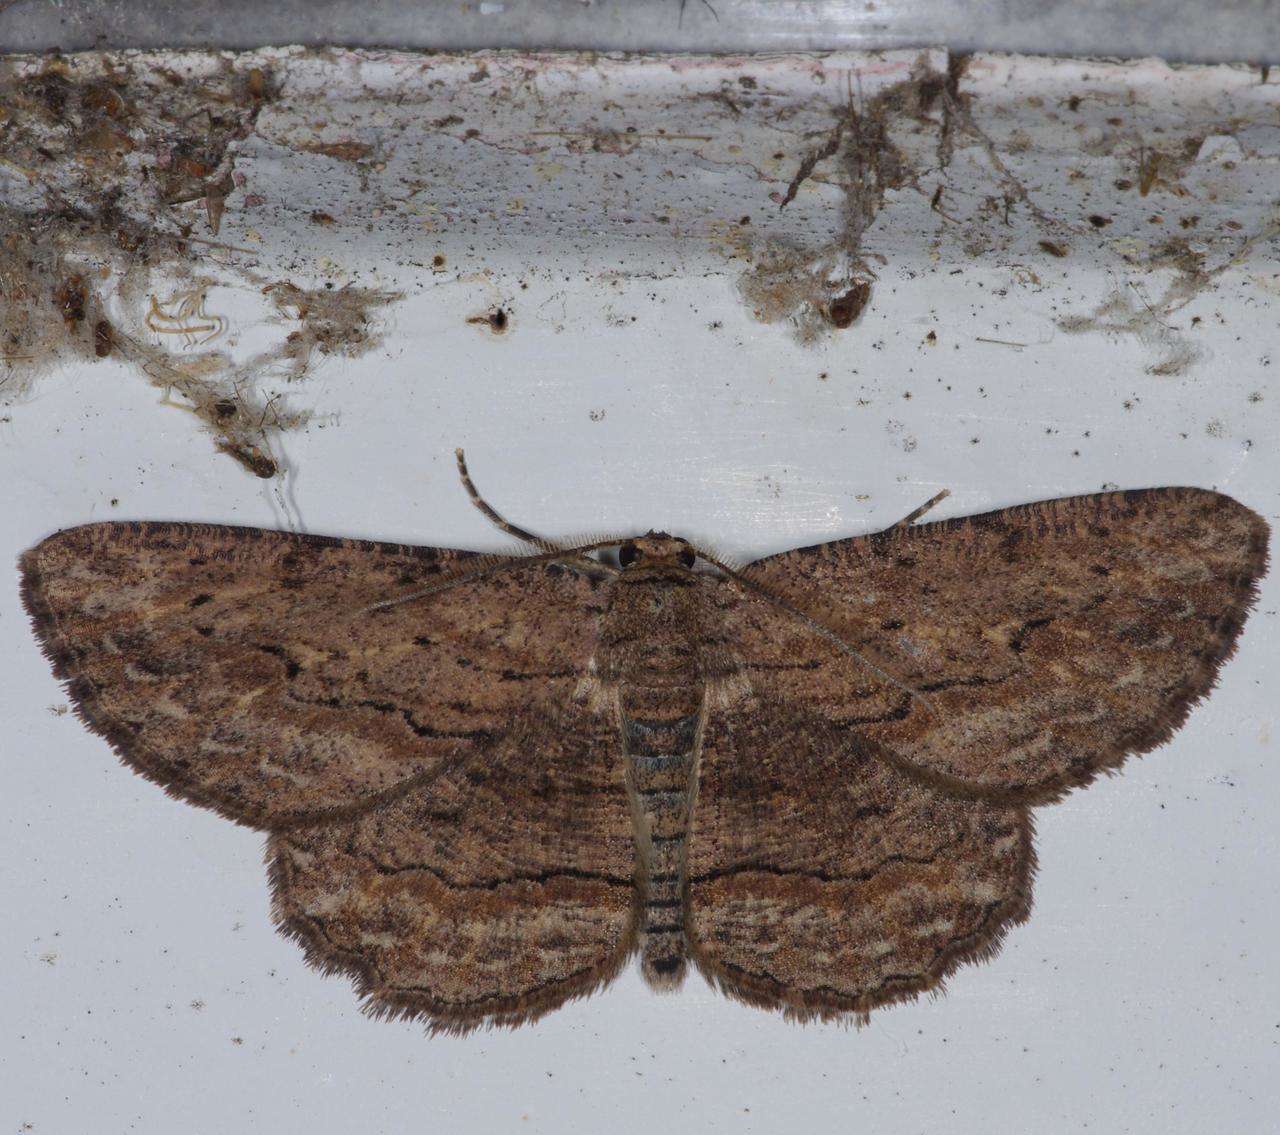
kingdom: Animalia
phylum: Arthropoda
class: Insecta
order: Lepidoptera
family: Geometridae
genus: Ectropis
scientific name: Ectropis excursaria
